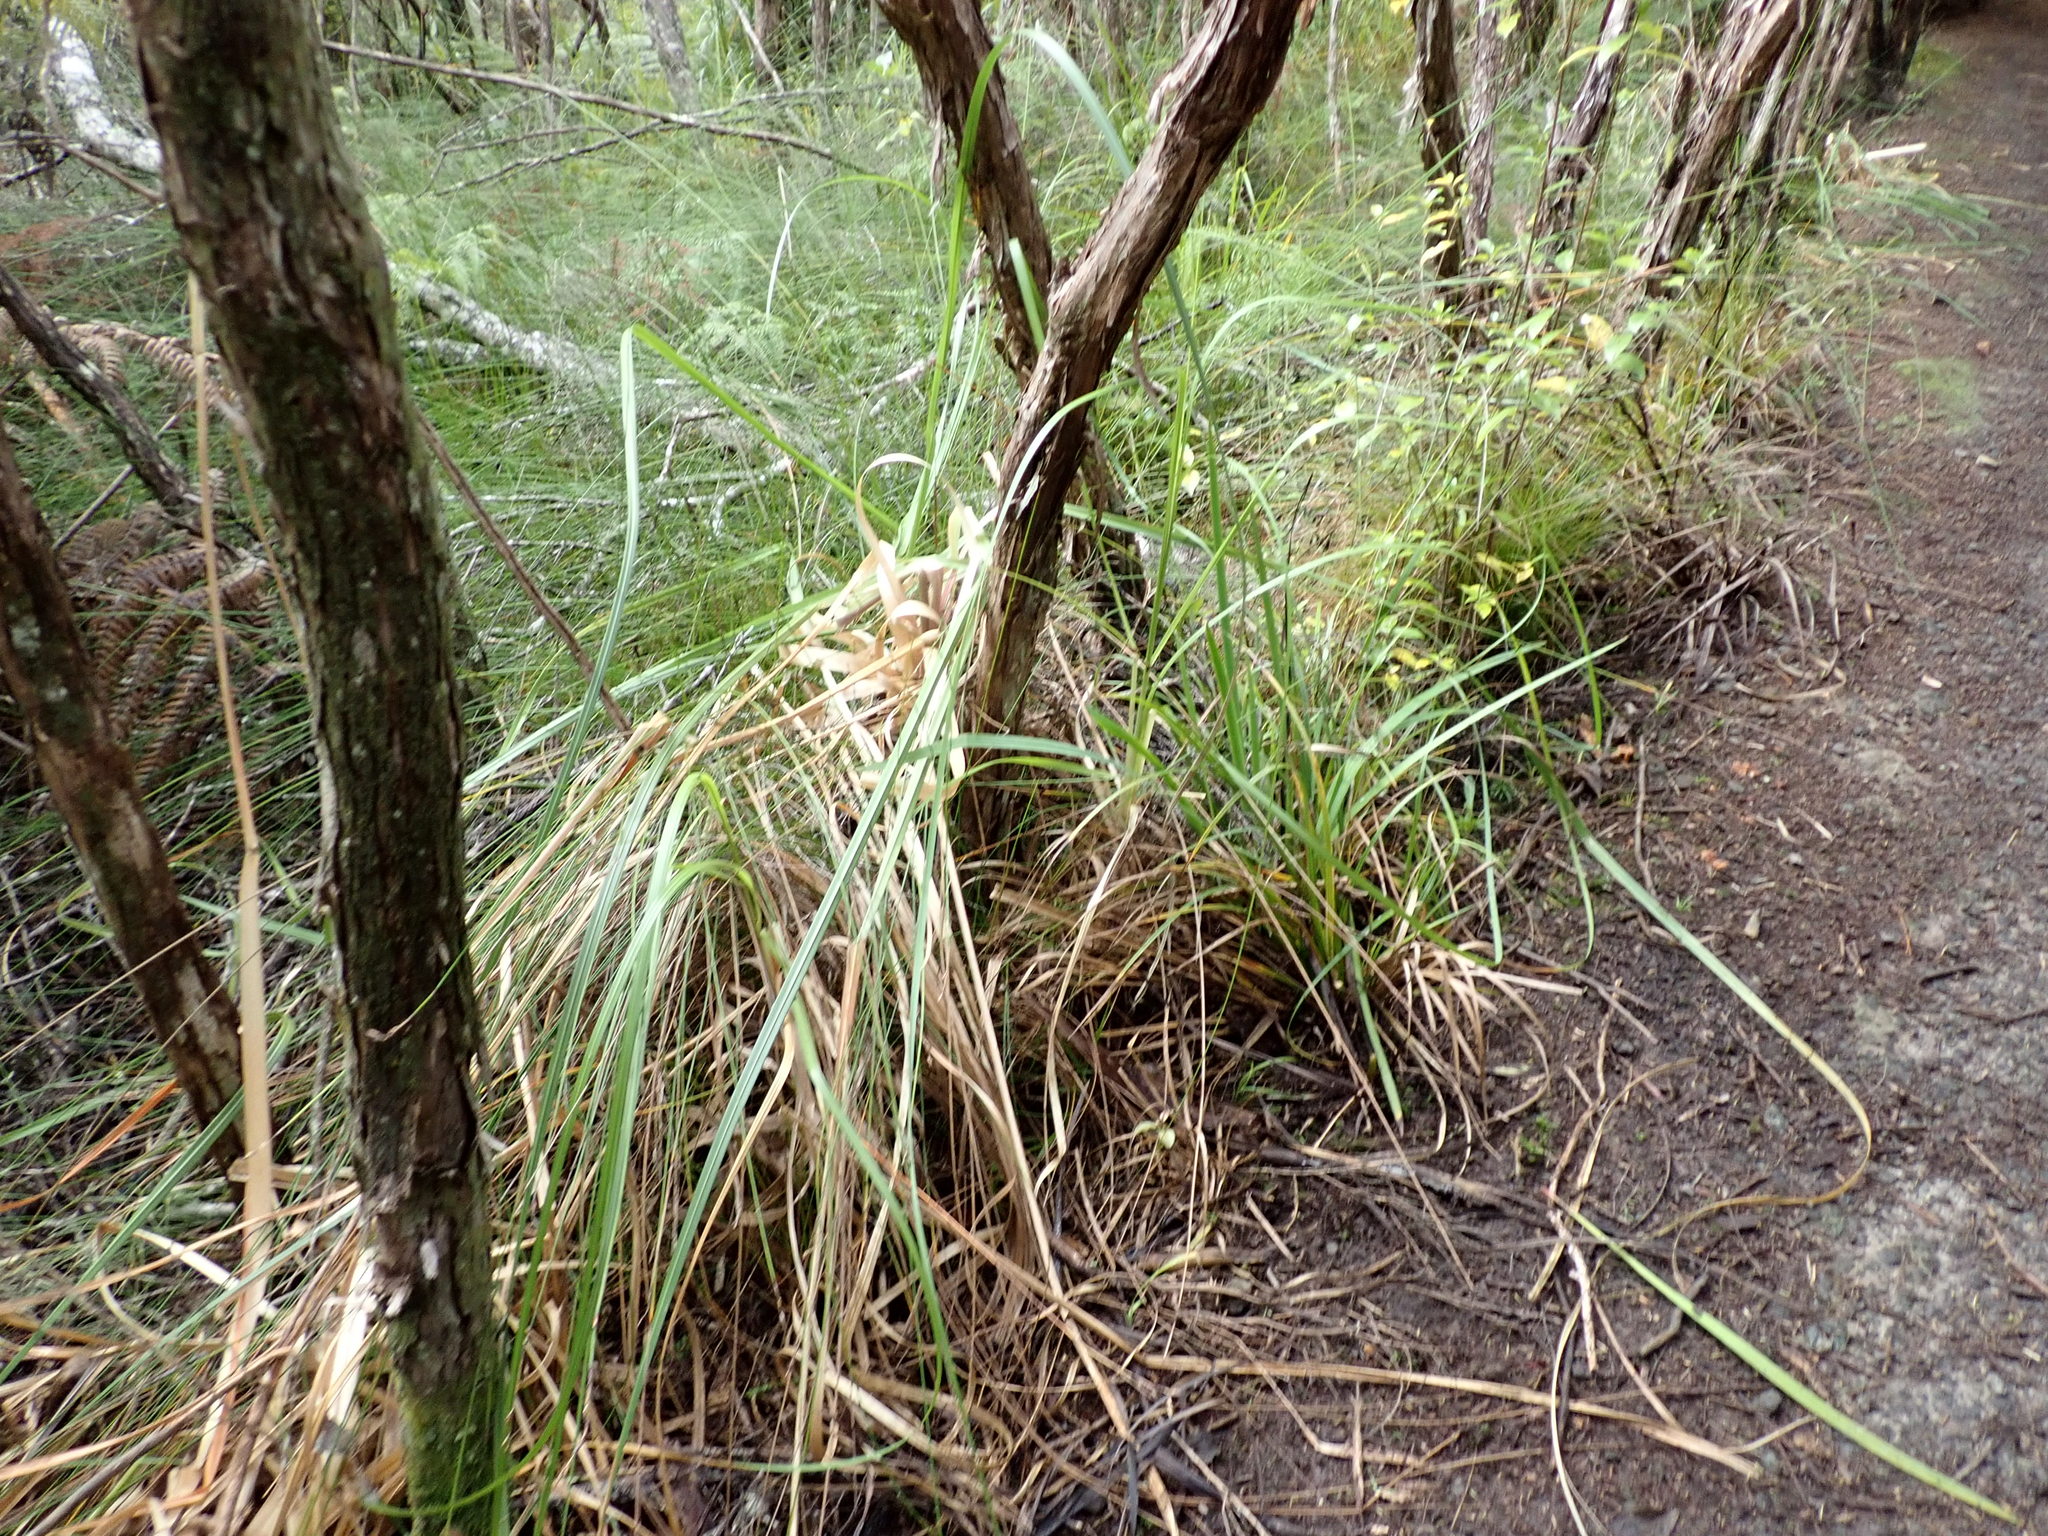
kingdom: Plantae
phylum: Tracheophyta
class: Pinopsida
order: Pinales
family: Podocarpaceae
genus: Dacrydium
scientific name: Dacrydium cupressinum
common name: Red pine
